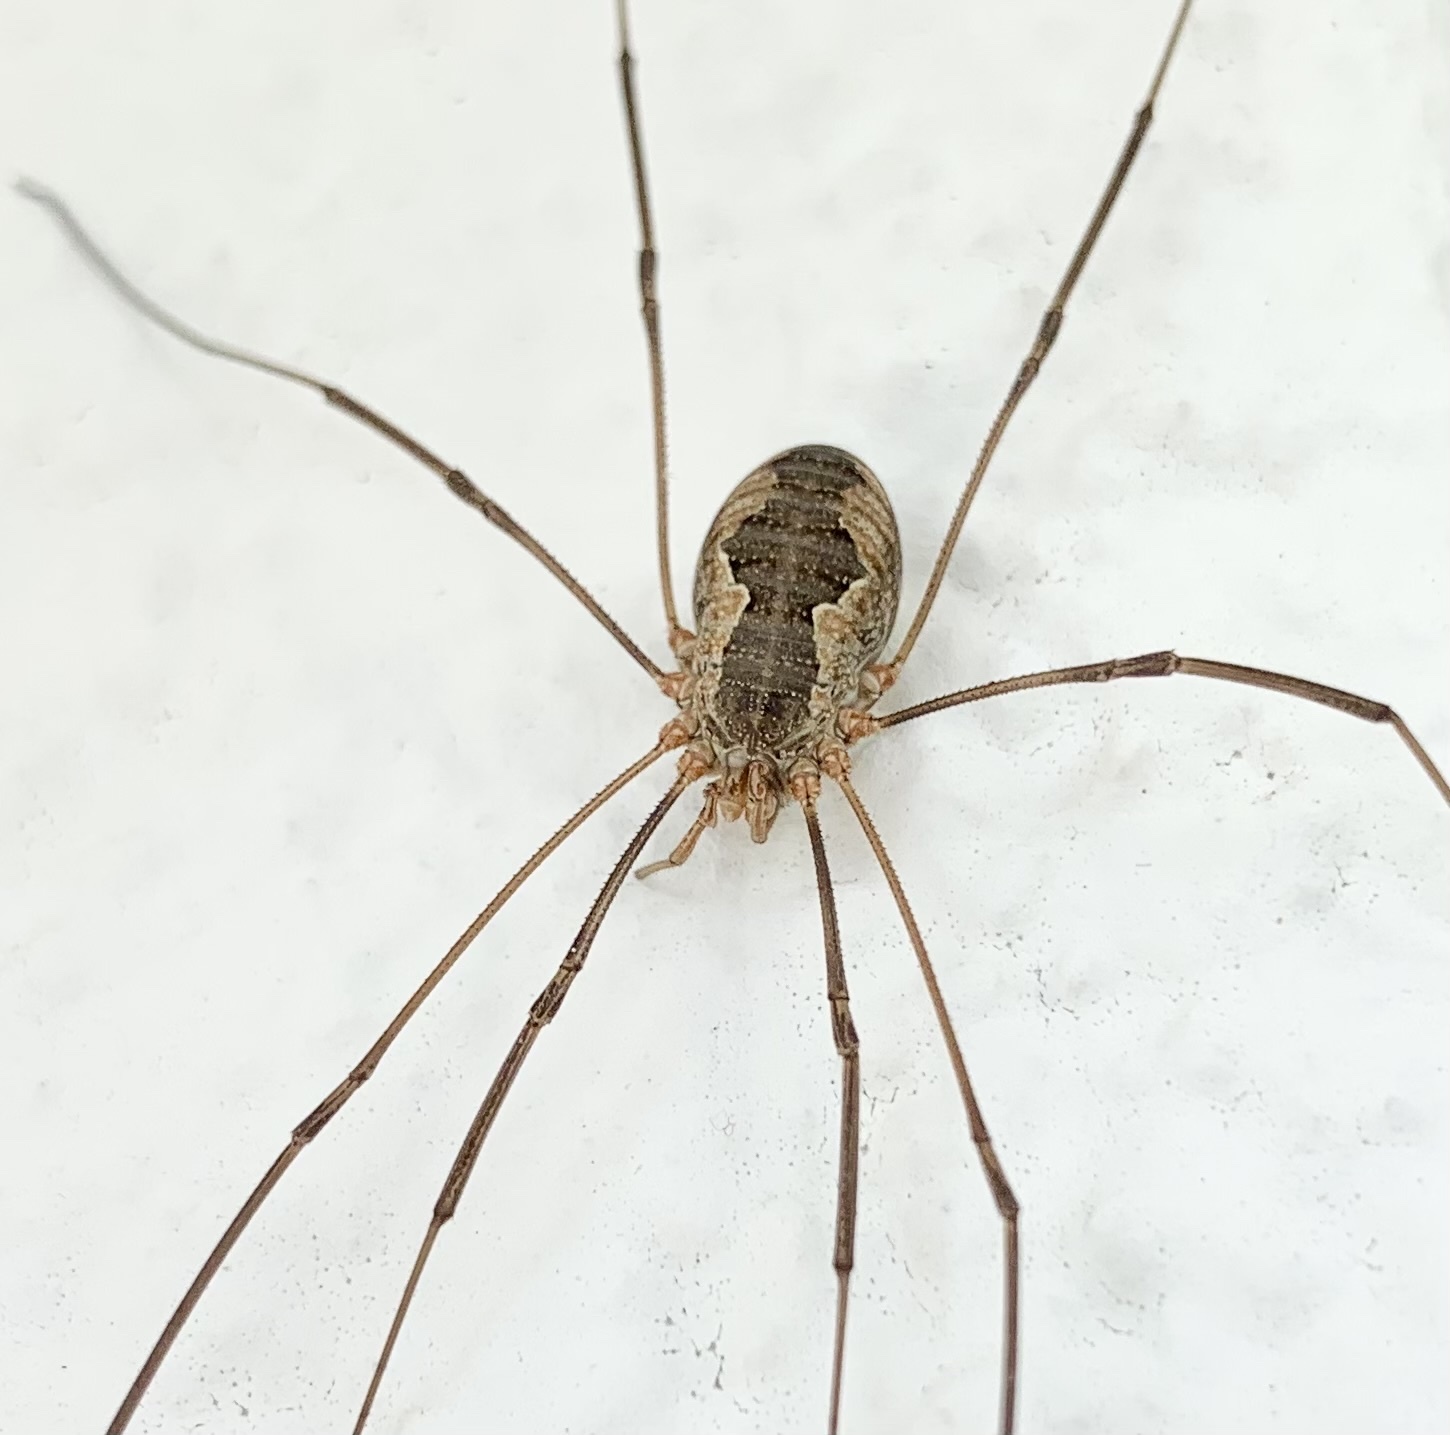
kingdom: Animalia
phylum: Arthropoda
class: Arachnida
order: Opiliones
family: Phalangiidae
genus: Phalangium
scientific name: Phalangium opilio
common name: Daddy longleg
